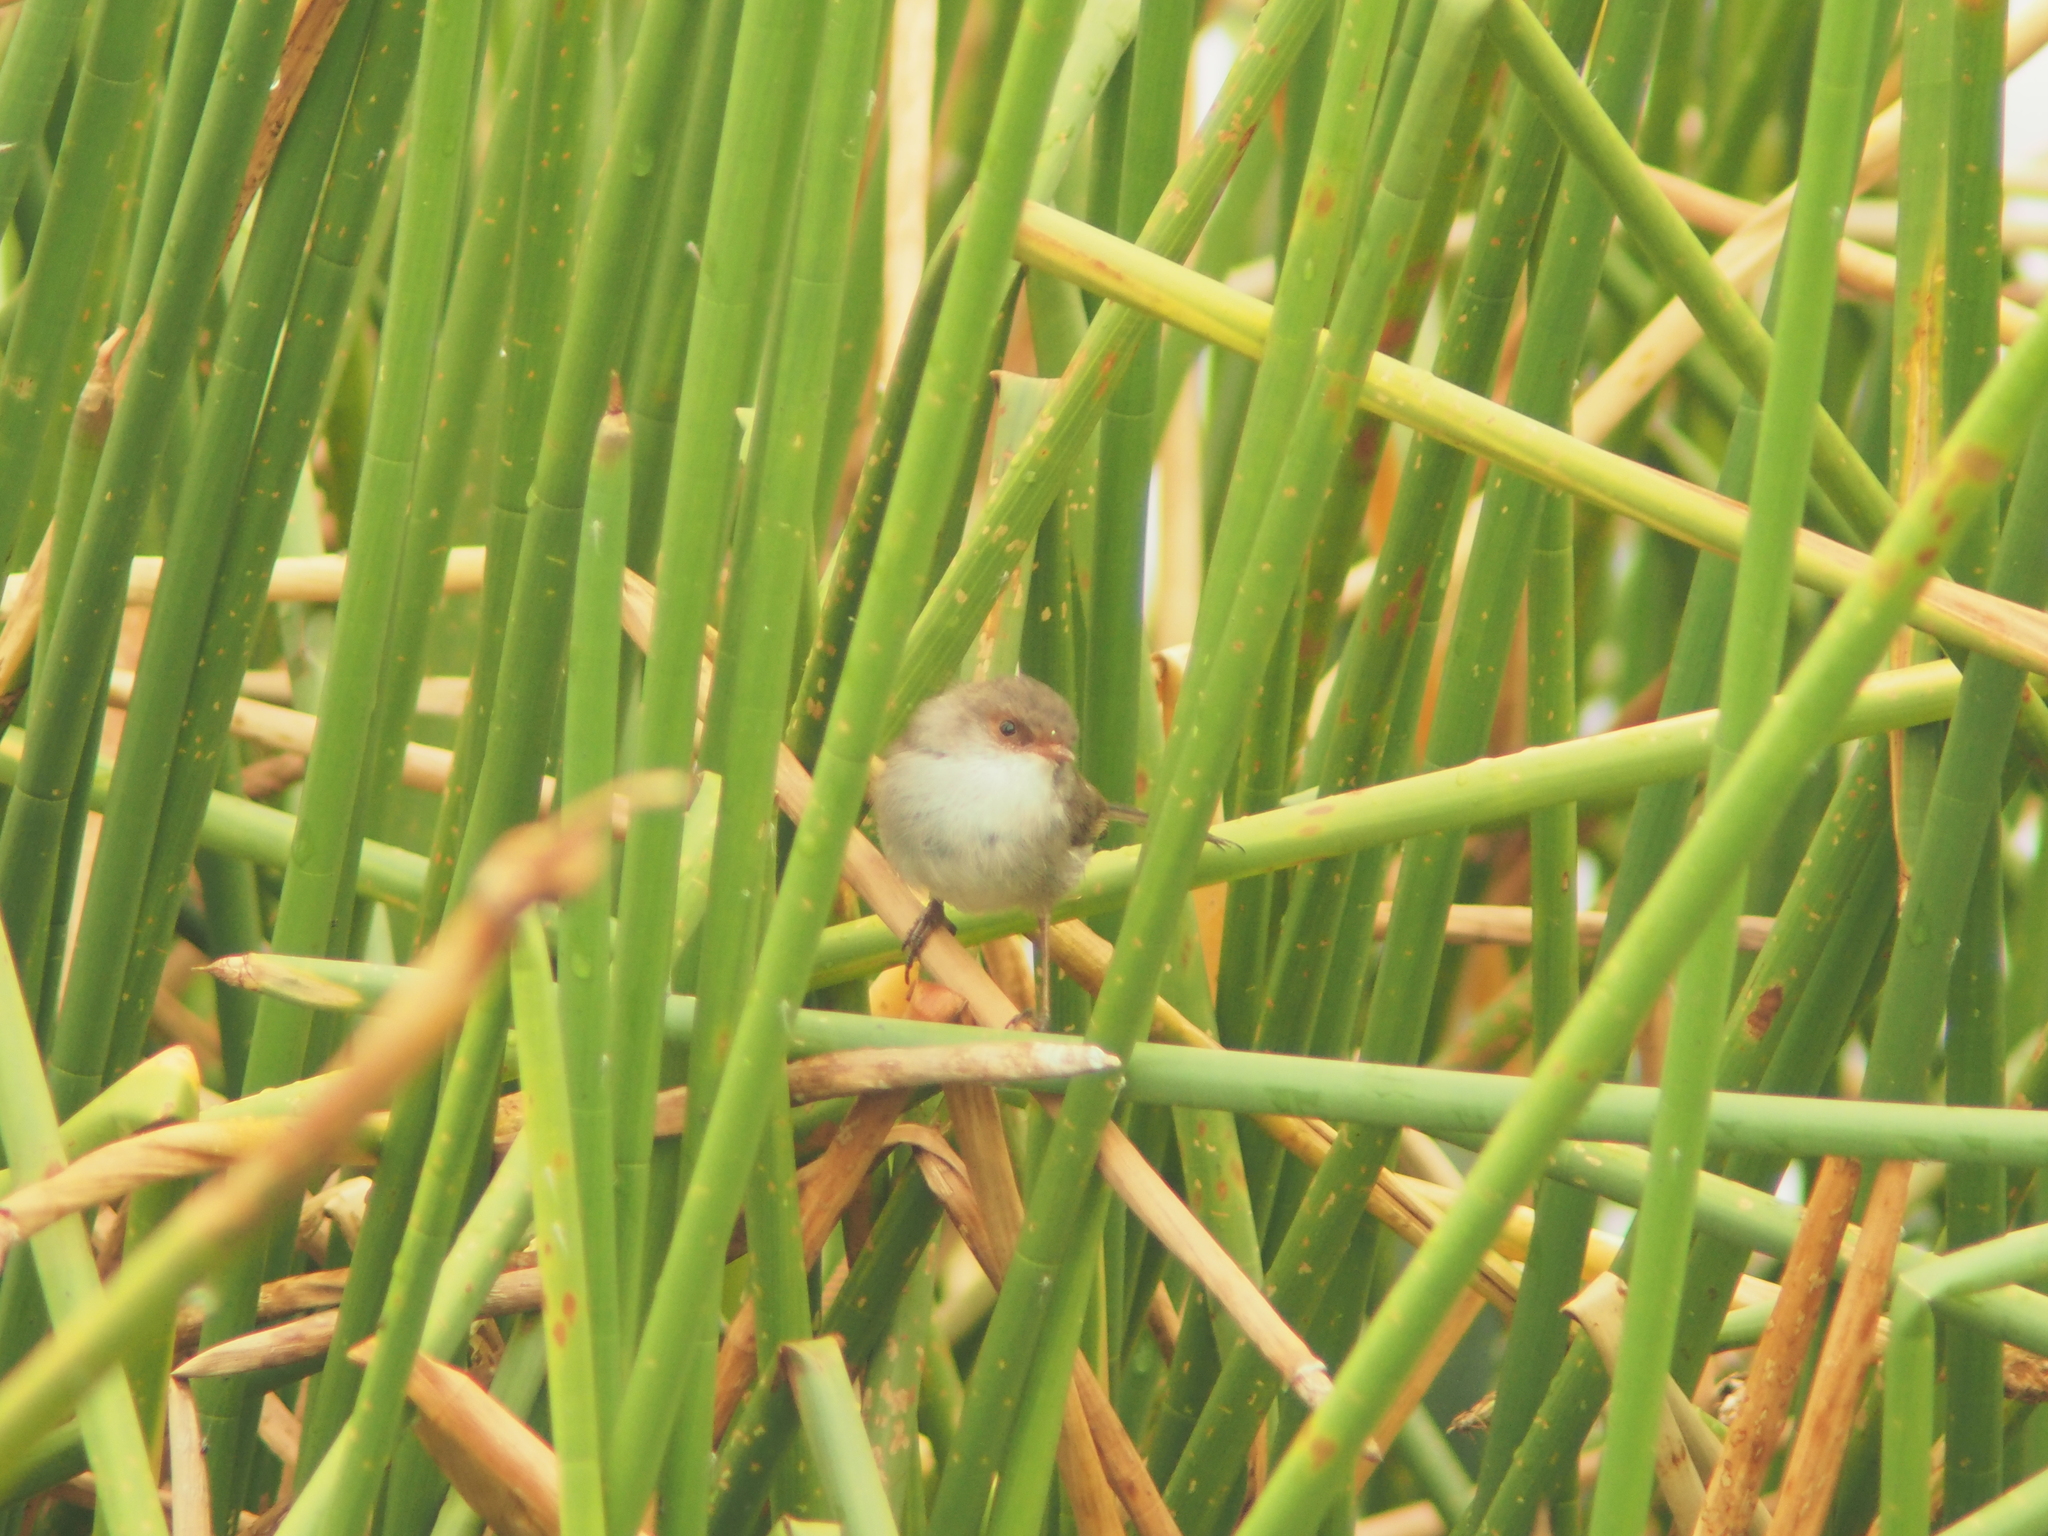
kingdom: Animalia
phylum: Chordata
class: Aves
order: Passeriformes
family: Maluridae
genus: Malurus
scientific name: Malurus cyaneus
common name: Superb fairywren
